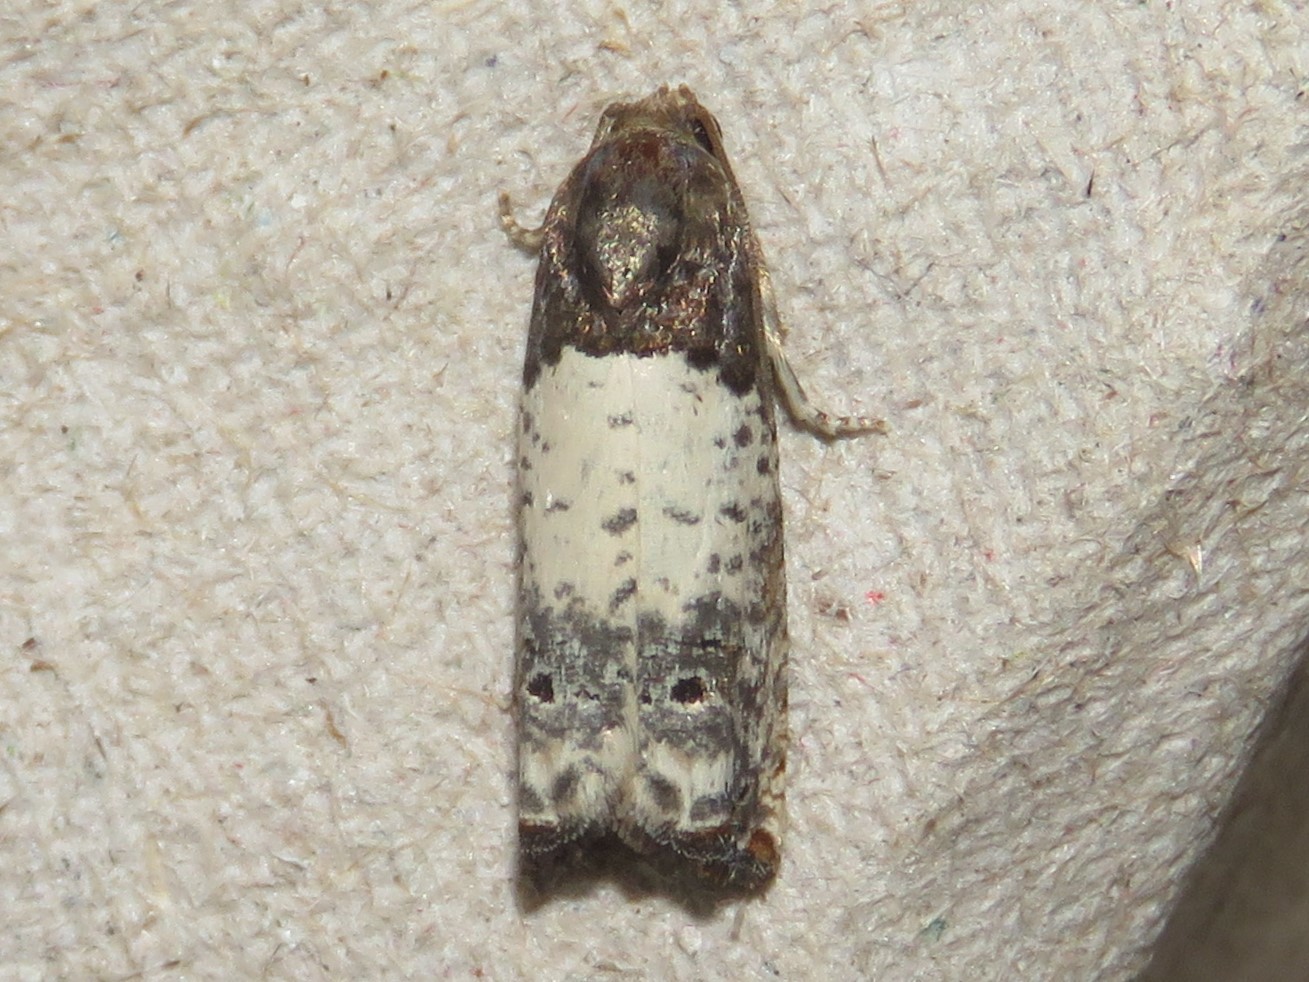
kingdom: Animalia
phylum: Arthropoda
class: Insecta
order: Lepidoptera
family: Tortricidae
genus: Epiblema
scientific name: Epiblema scudderiana
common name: Goldenrod gall moth
